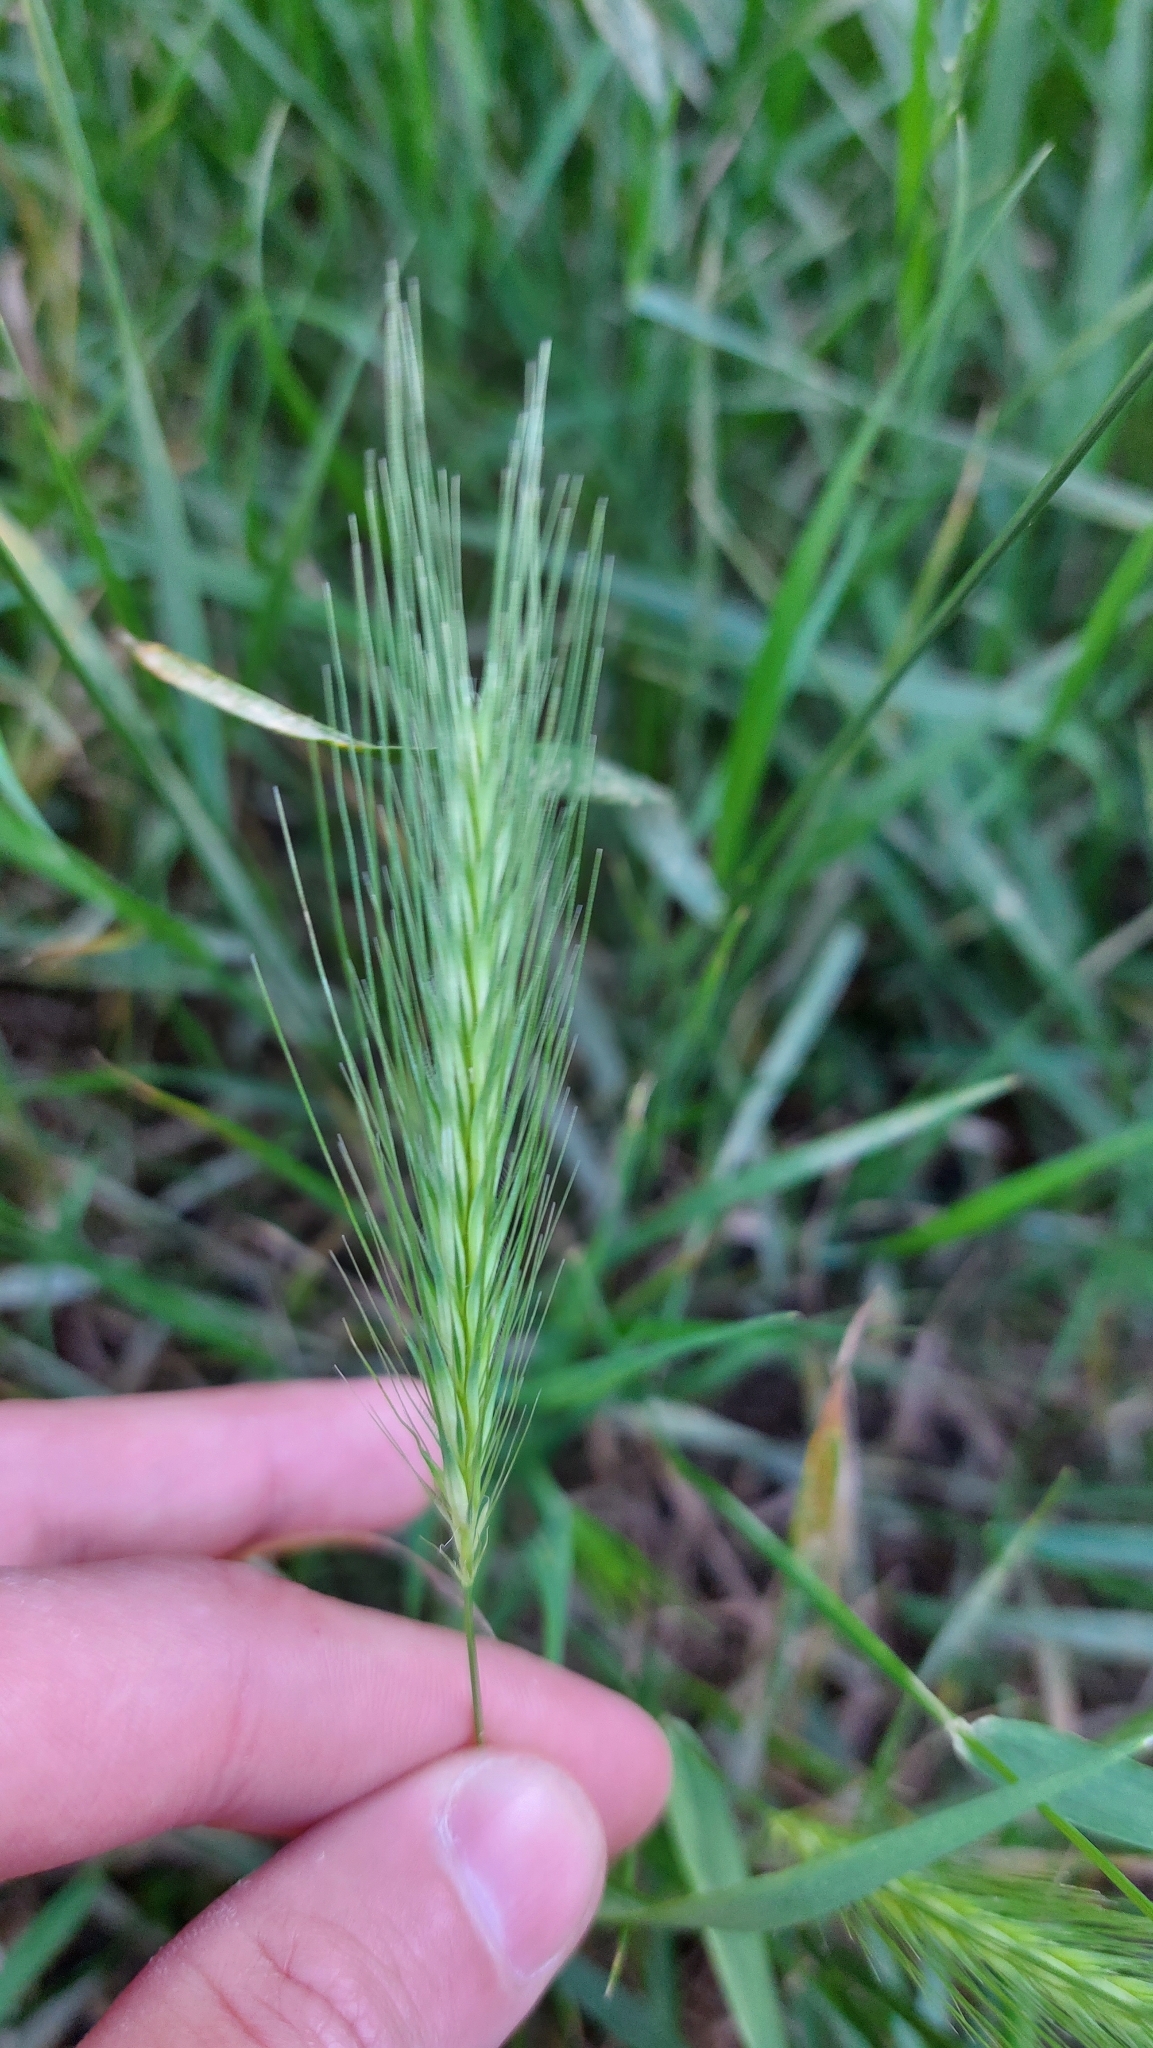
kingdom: Plantae
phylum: Tracheophyta
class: Liliopsida
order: Poales
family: Poaceae
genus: Hordeum
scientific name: Hordeum murinum
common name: Wall barley
